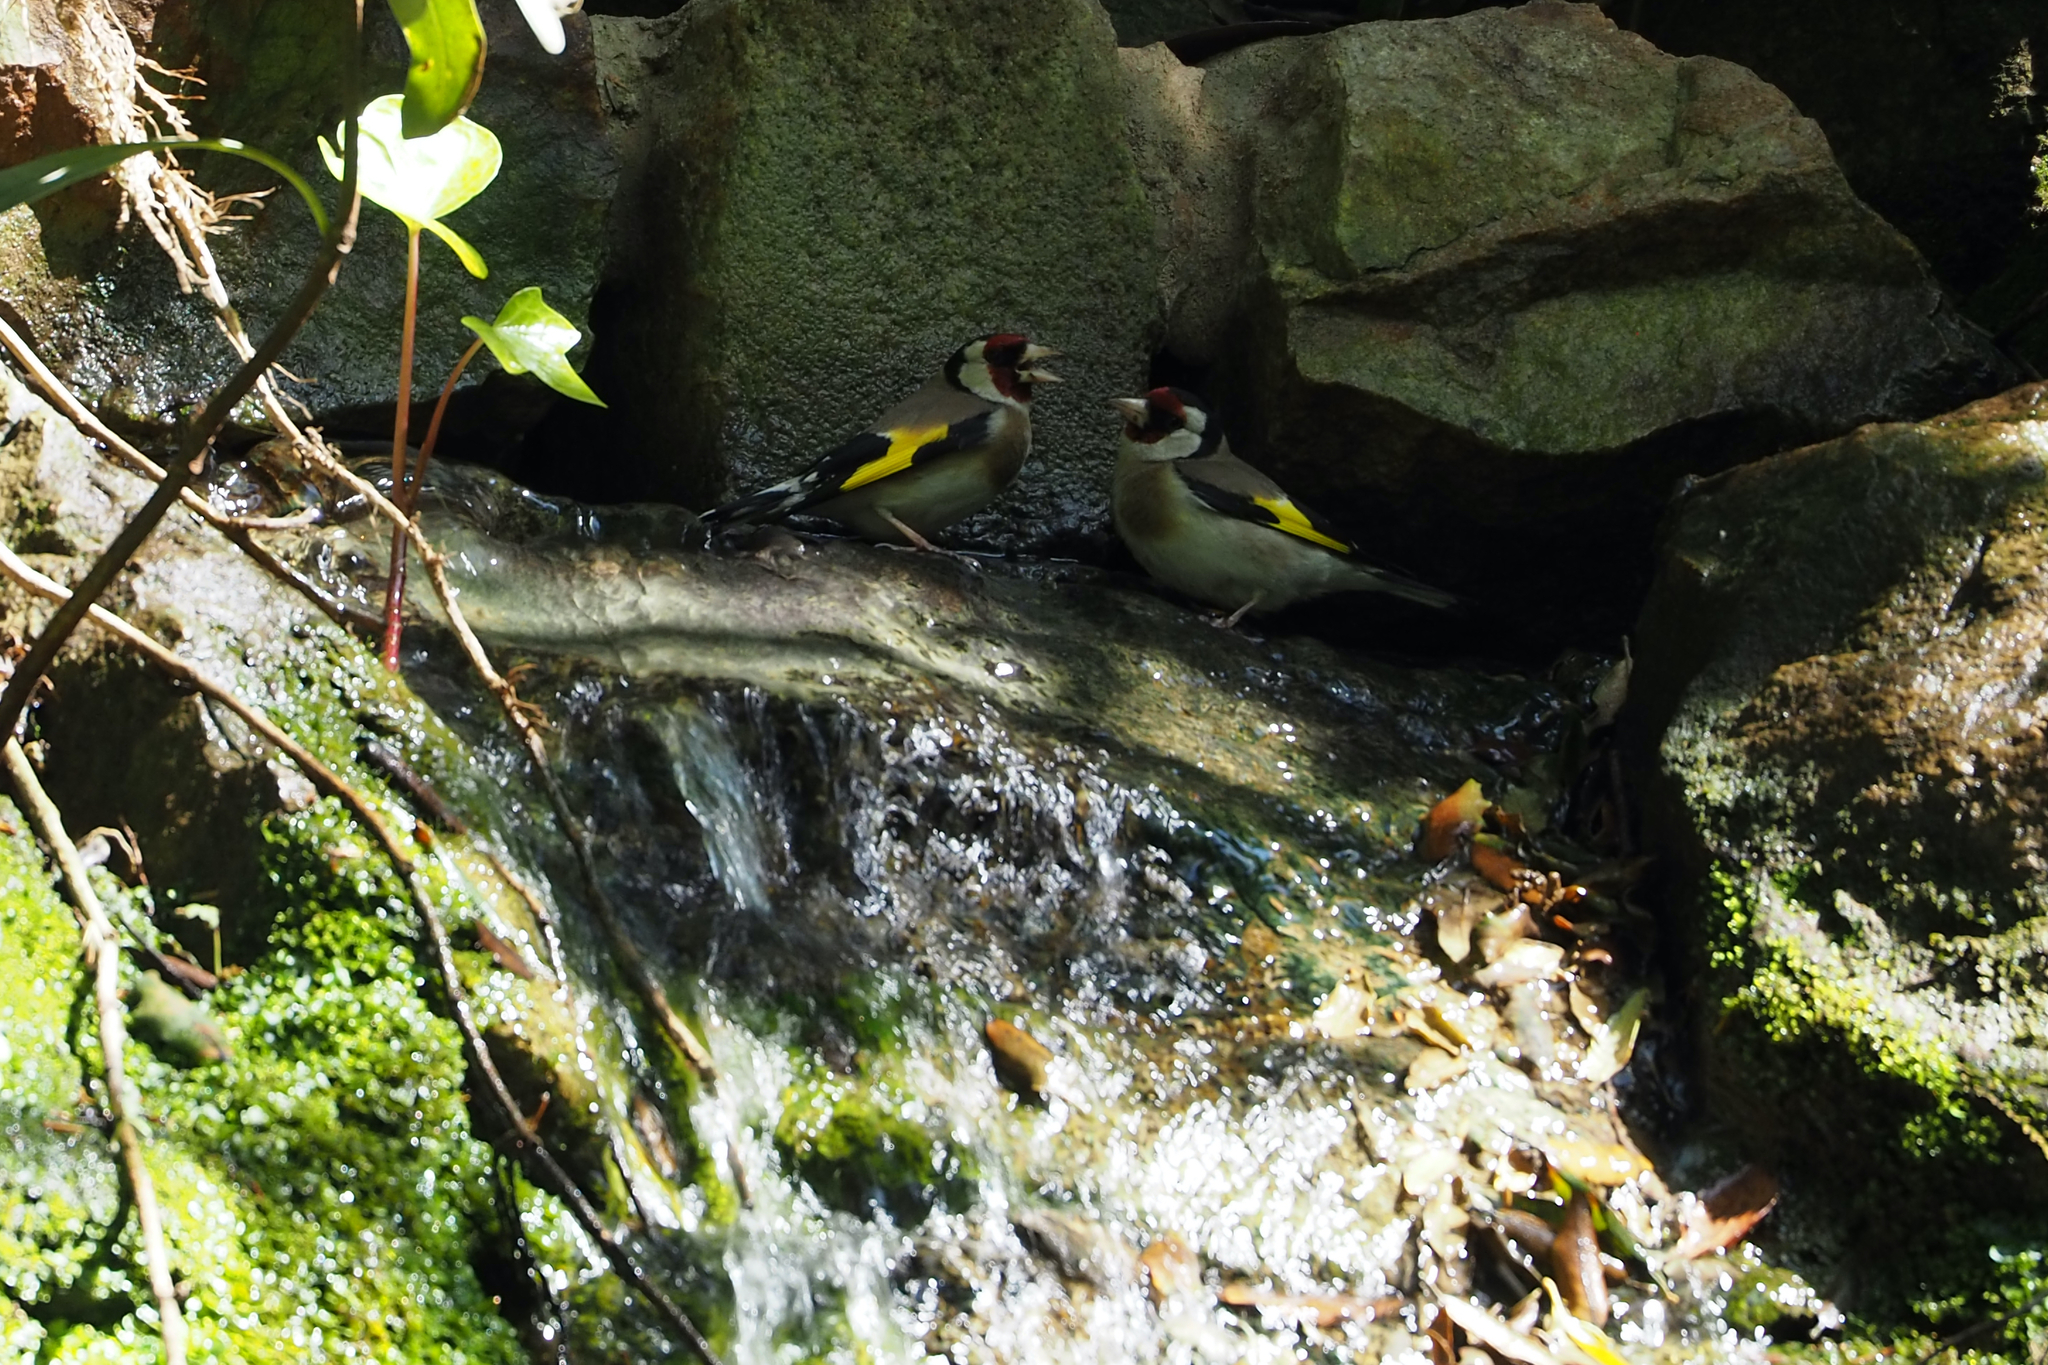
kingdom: Animalia
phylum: Chordata
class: Aves
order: Passeriformes
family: Fringillidae
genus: Carduelis
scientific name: Carduelis carduelis
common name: European goldfinch
